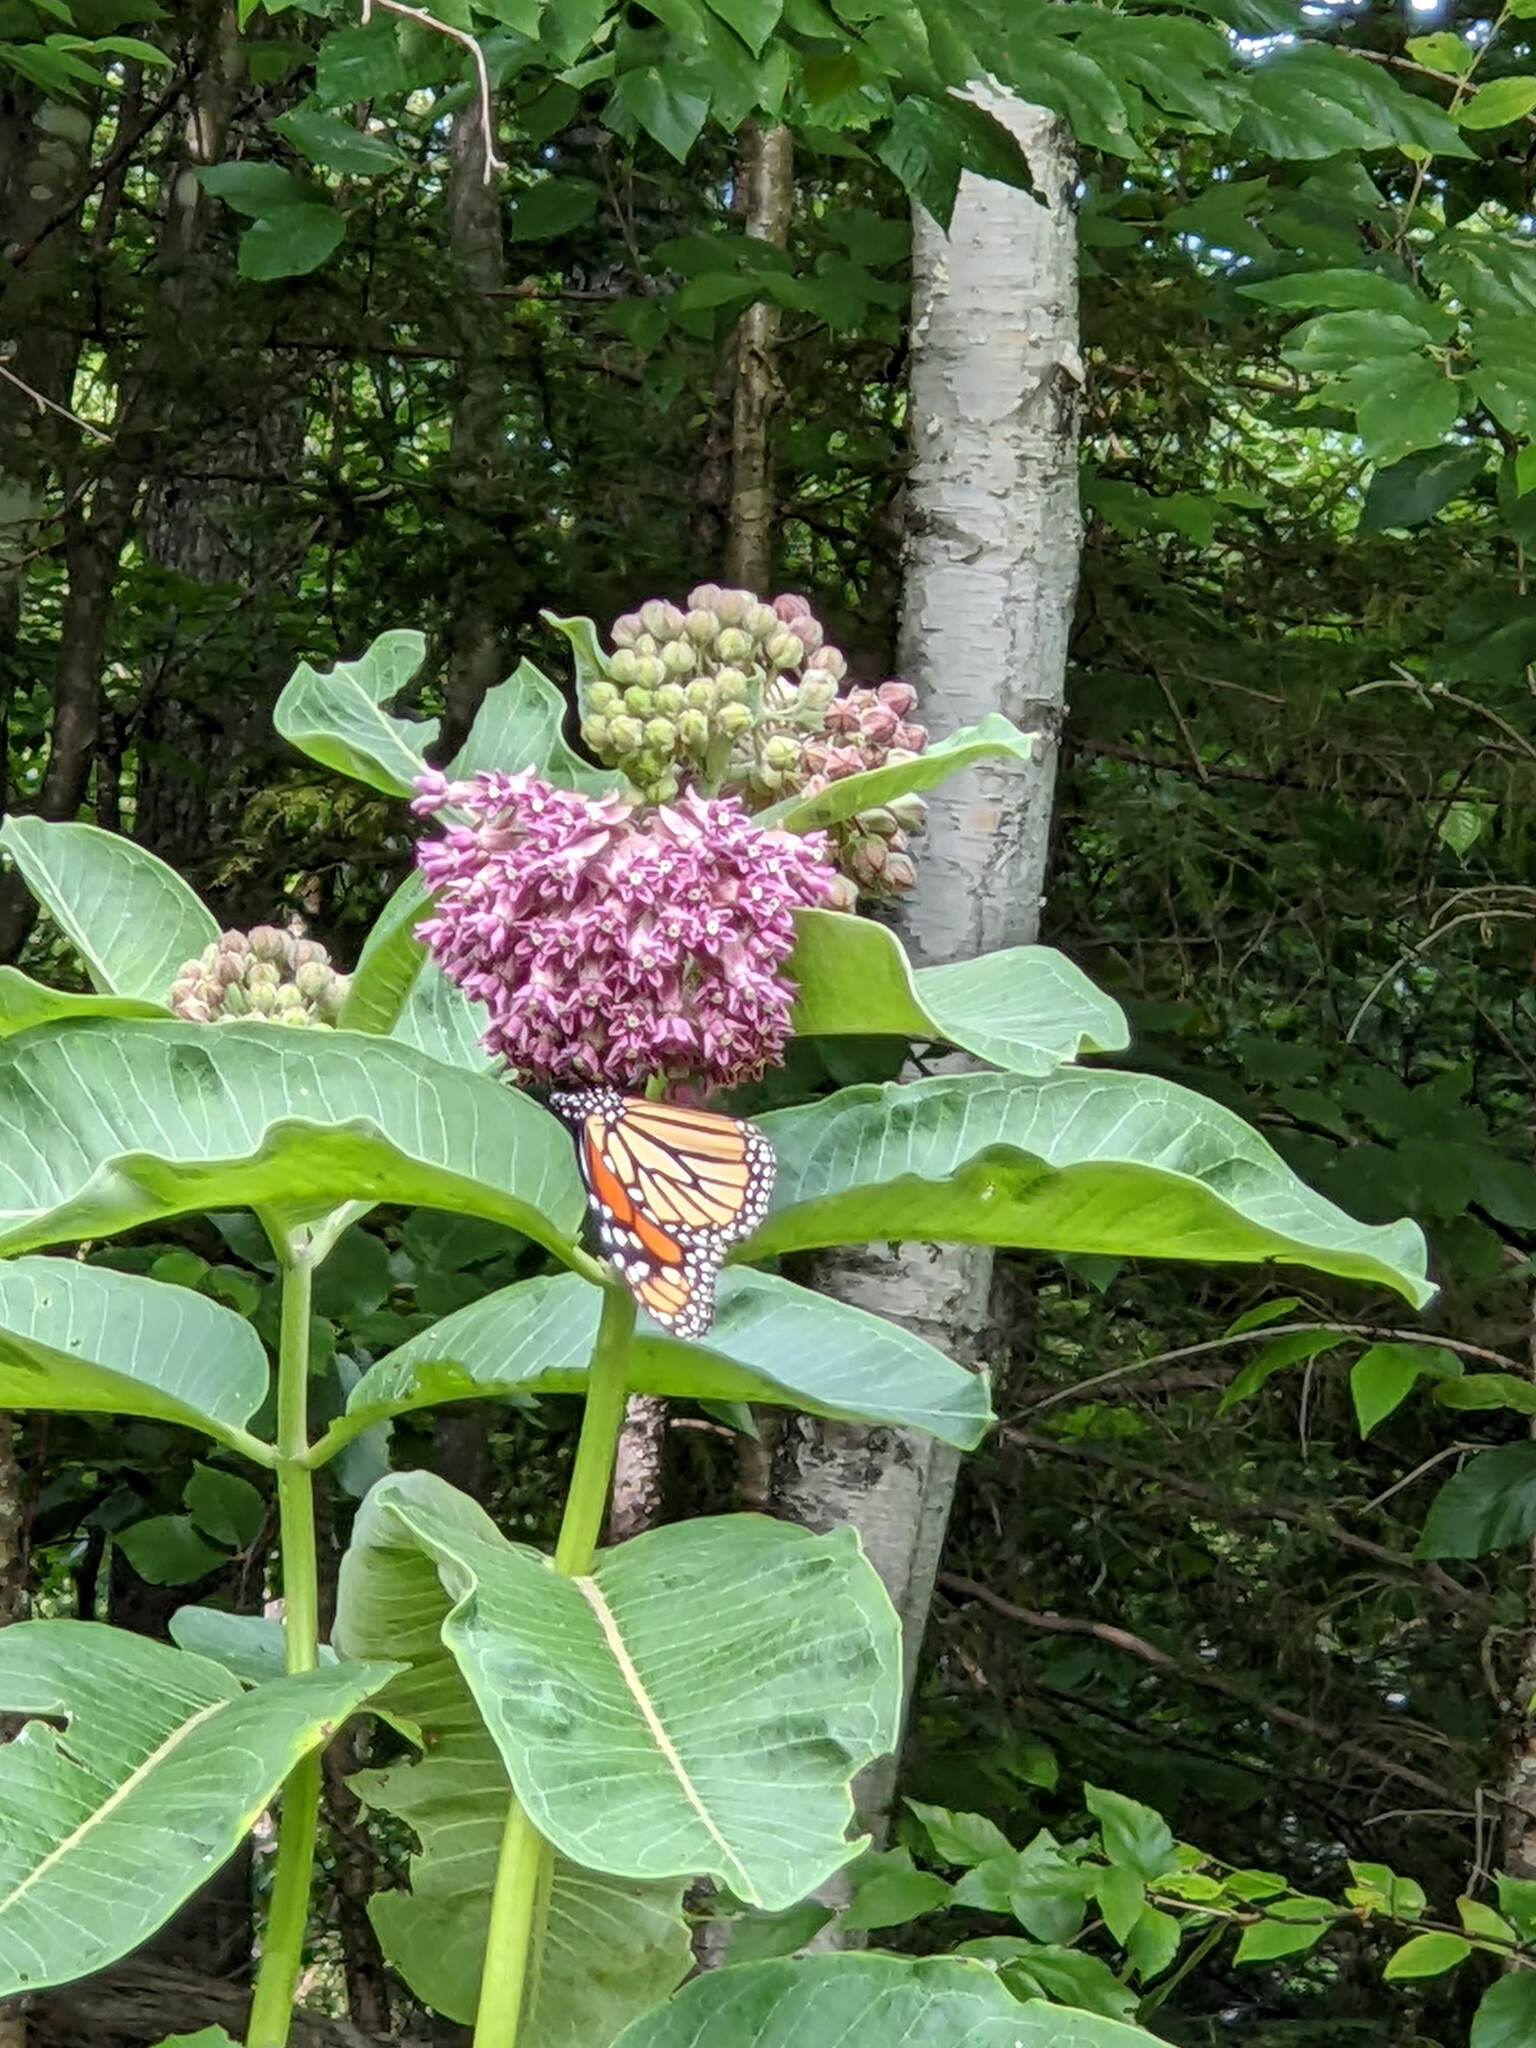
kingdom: Plantae
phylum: Tracheophyta
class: Magnoliopsida
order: Gentianales
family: Apocynaceae
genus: Asclepias
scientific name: Asclepias syriaca
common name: Common milkweed
